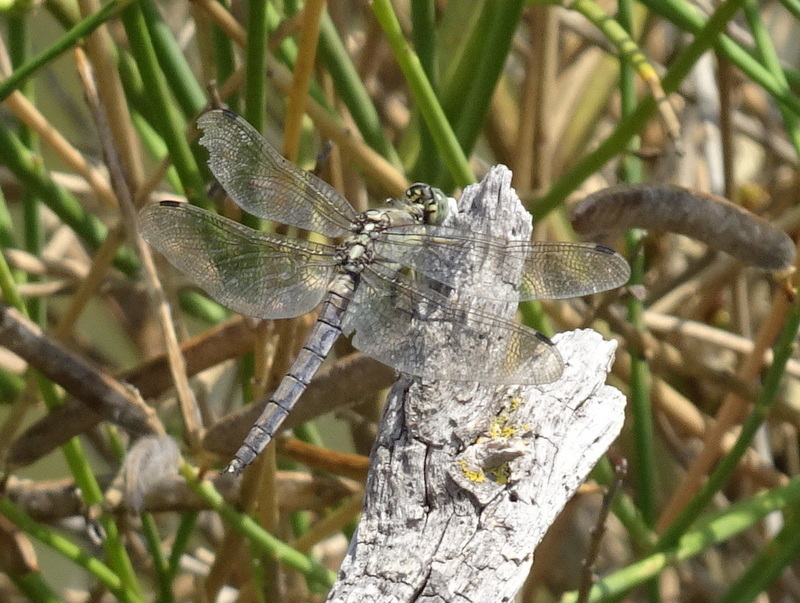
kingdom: Animalia
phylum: Arthropoda
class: Insecta
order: Odonata
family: Libellulidae
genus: Orthetrum
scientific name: Orthetrum cancellatum
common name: Black-tailed skimmer
